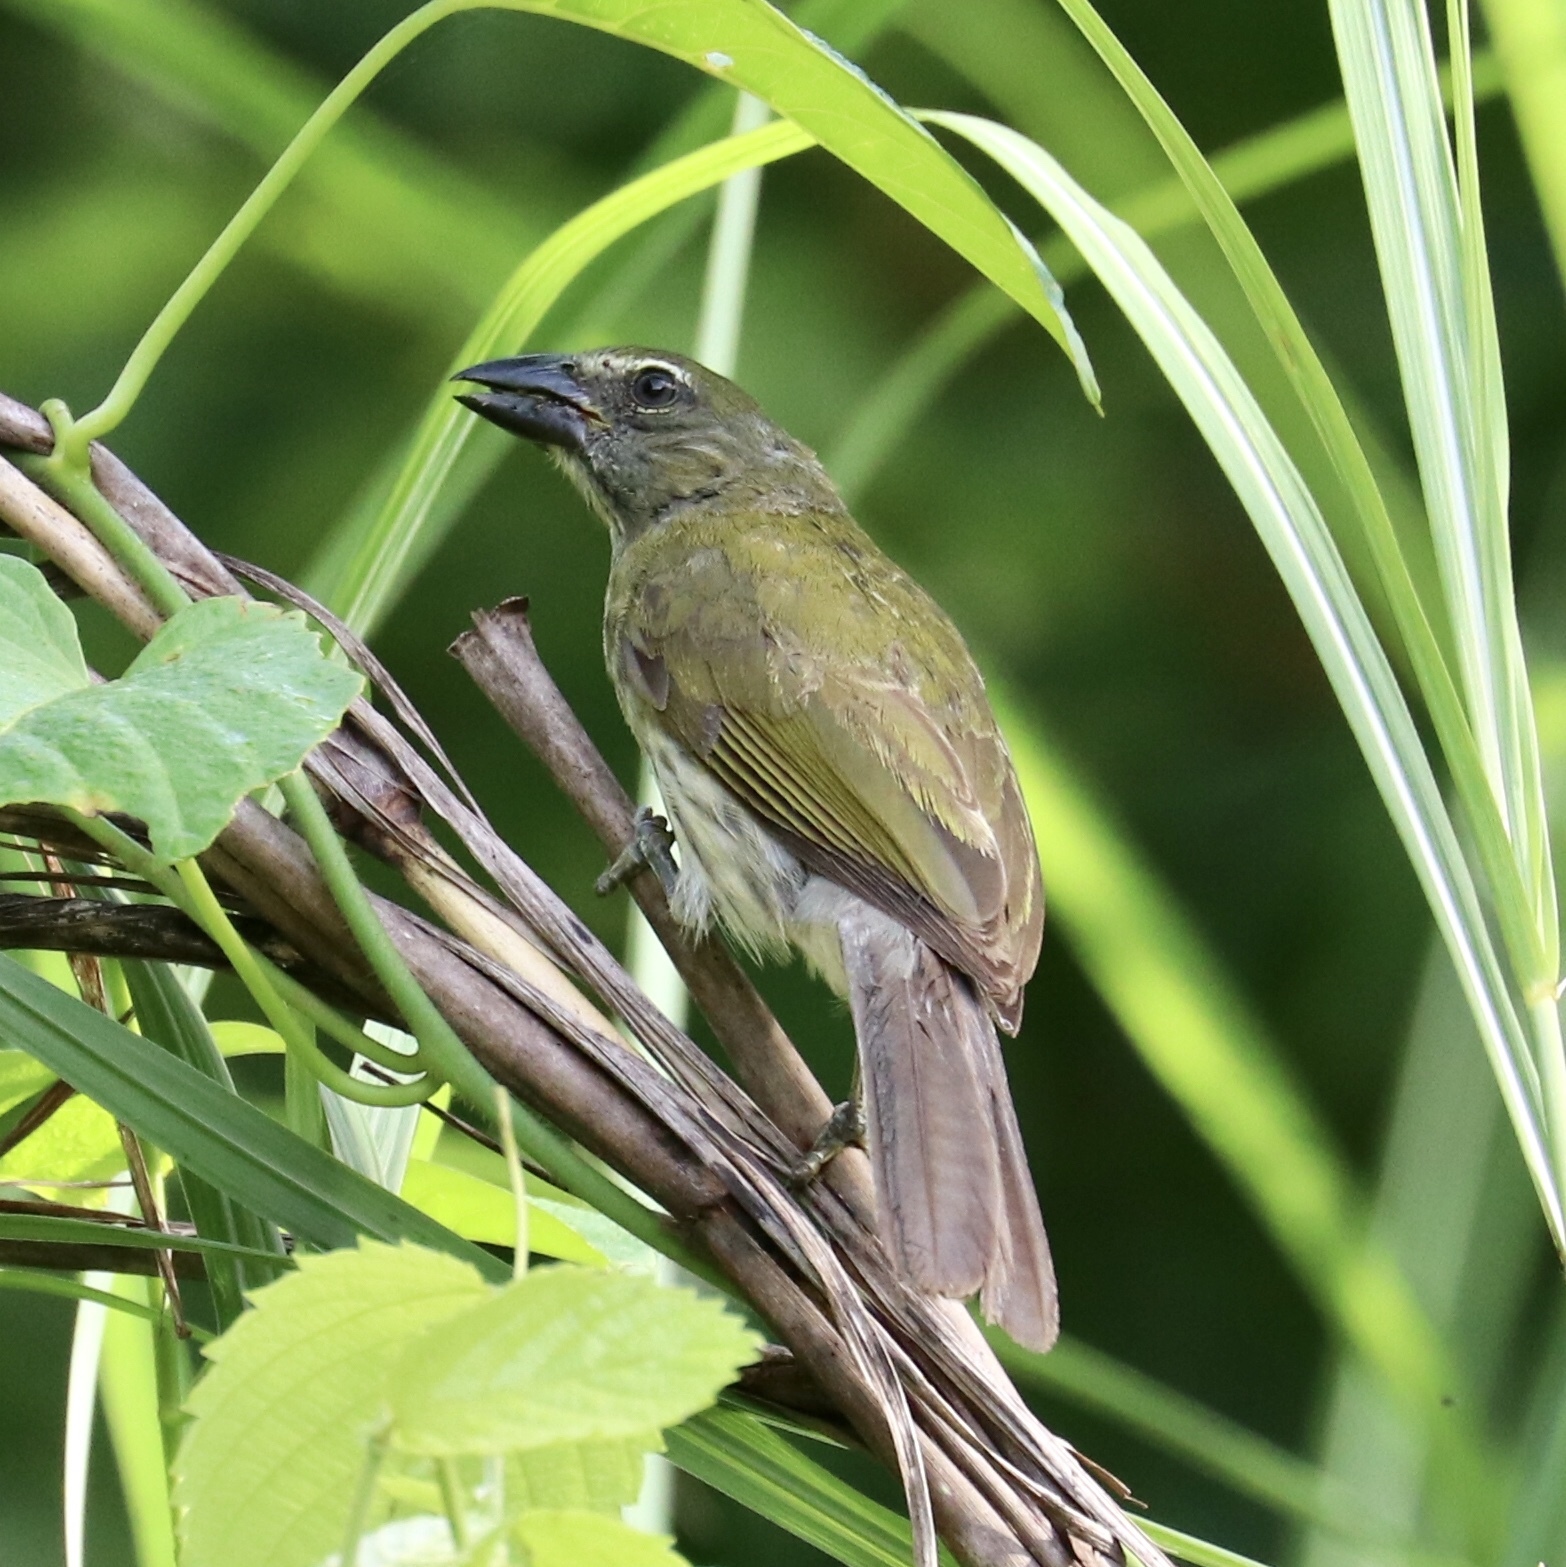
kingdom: Animalia
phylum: Chordata
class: Aves
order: Passeriformes
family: Thraupidae
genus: Saltator
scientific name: Saltator striatipectus
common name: Streaked saltator
